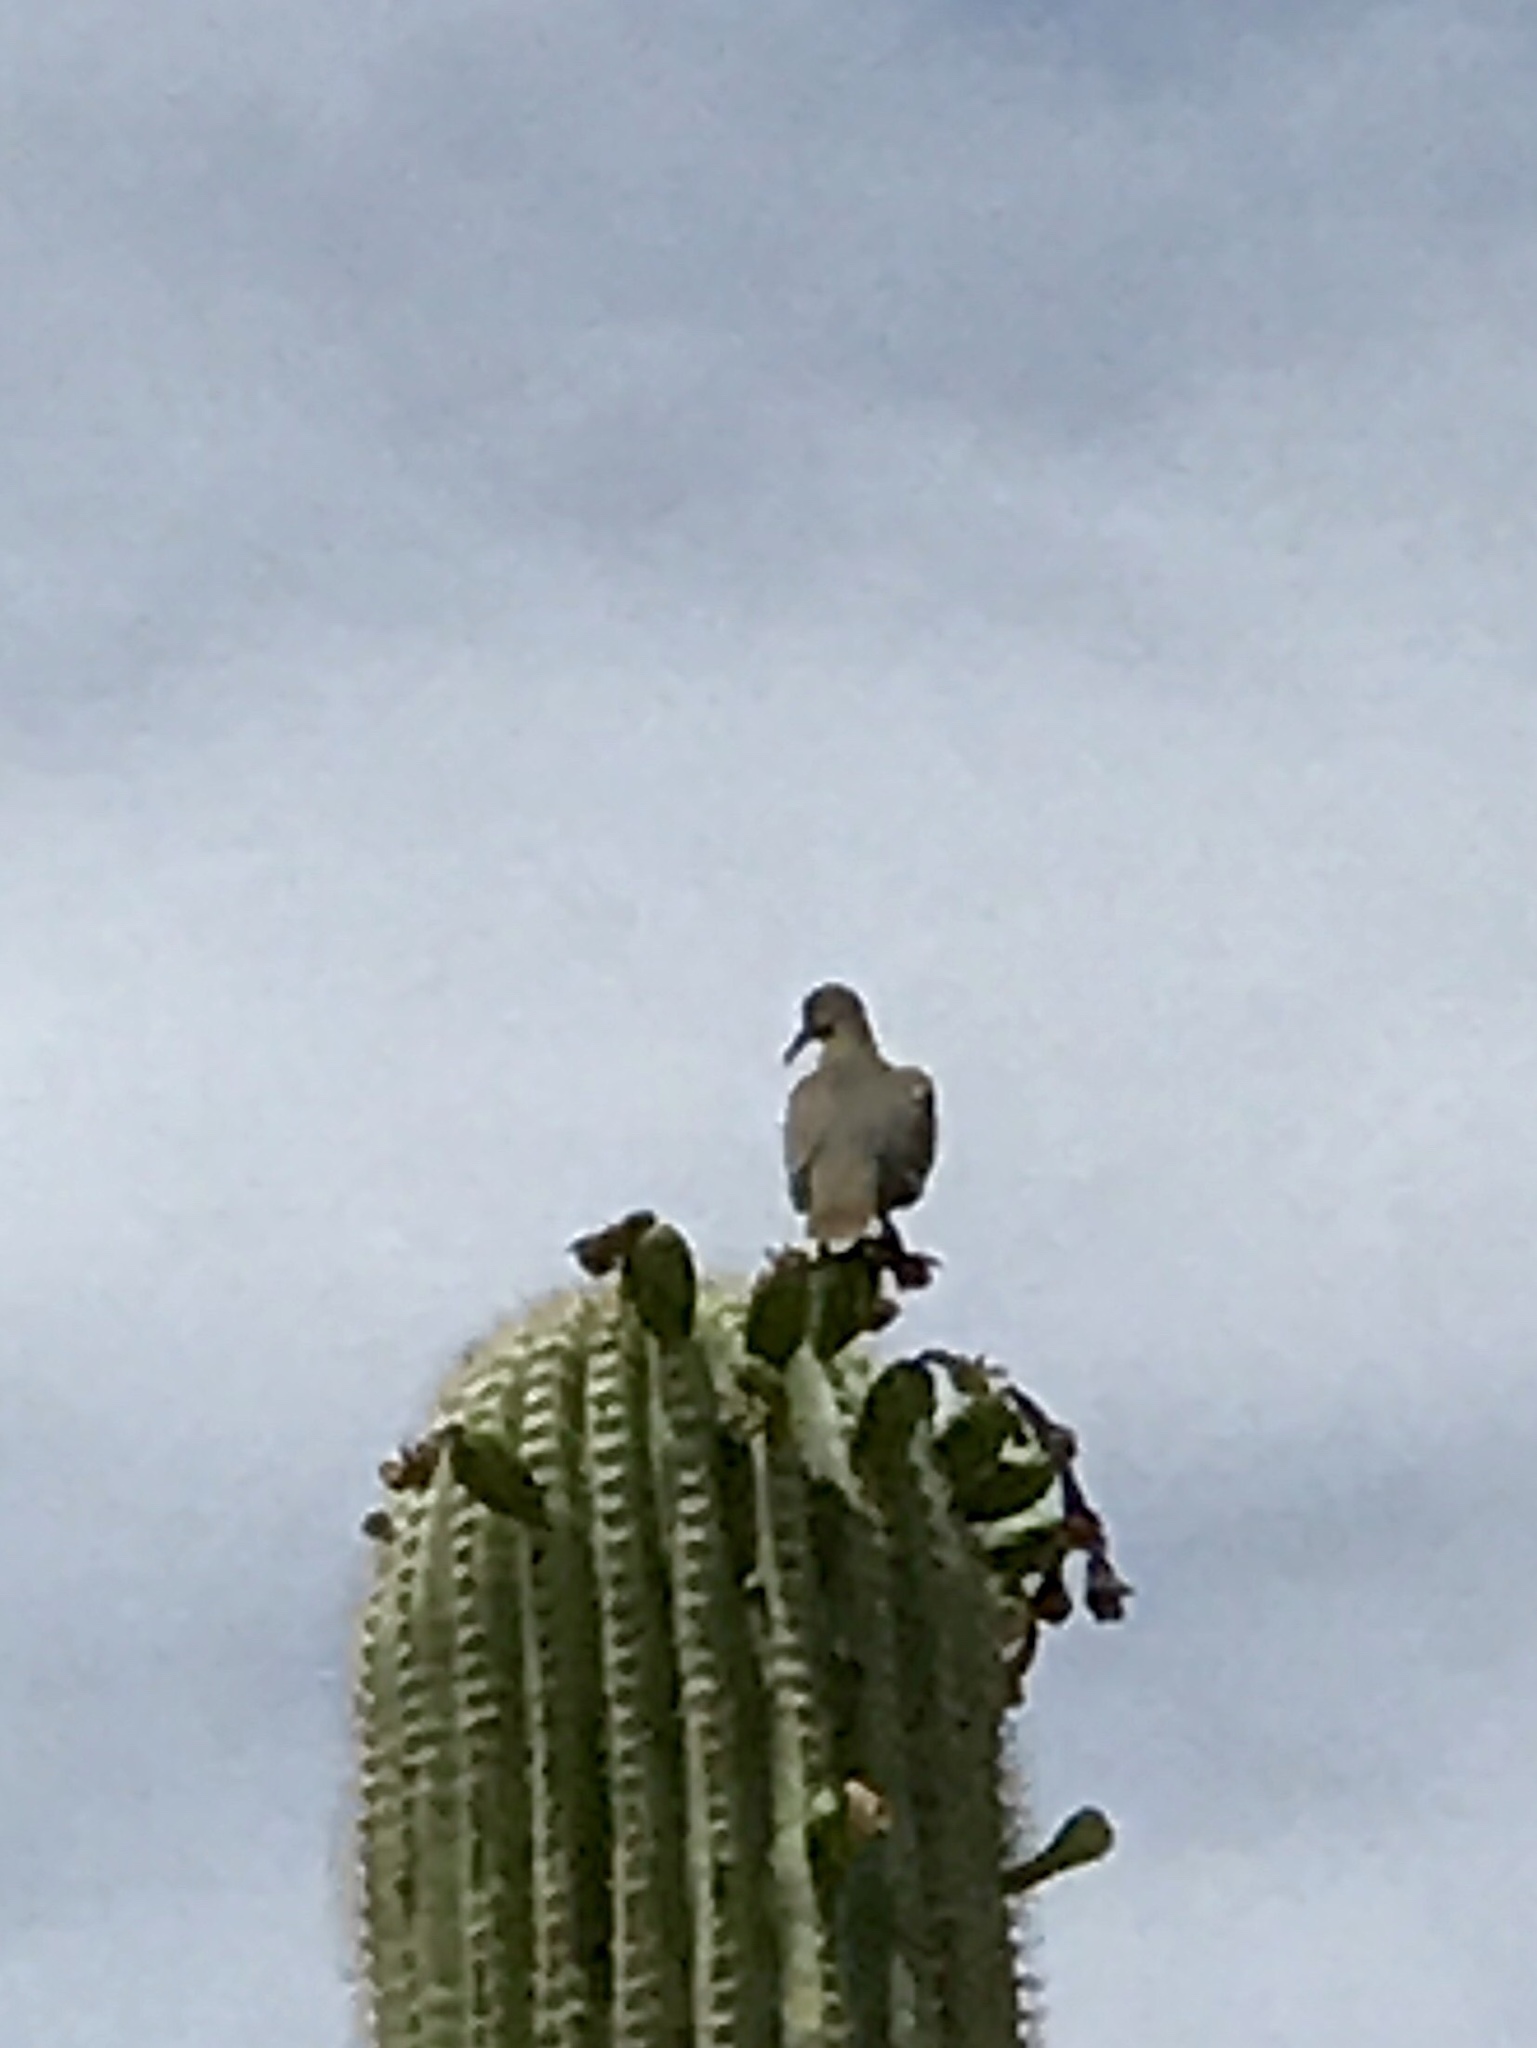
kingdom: Animalia
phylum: Chordata
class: Aves
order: Columbiformes
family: Columbidae
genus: Zenaida
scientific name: Zenaida asiatica
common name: White-winged dove
